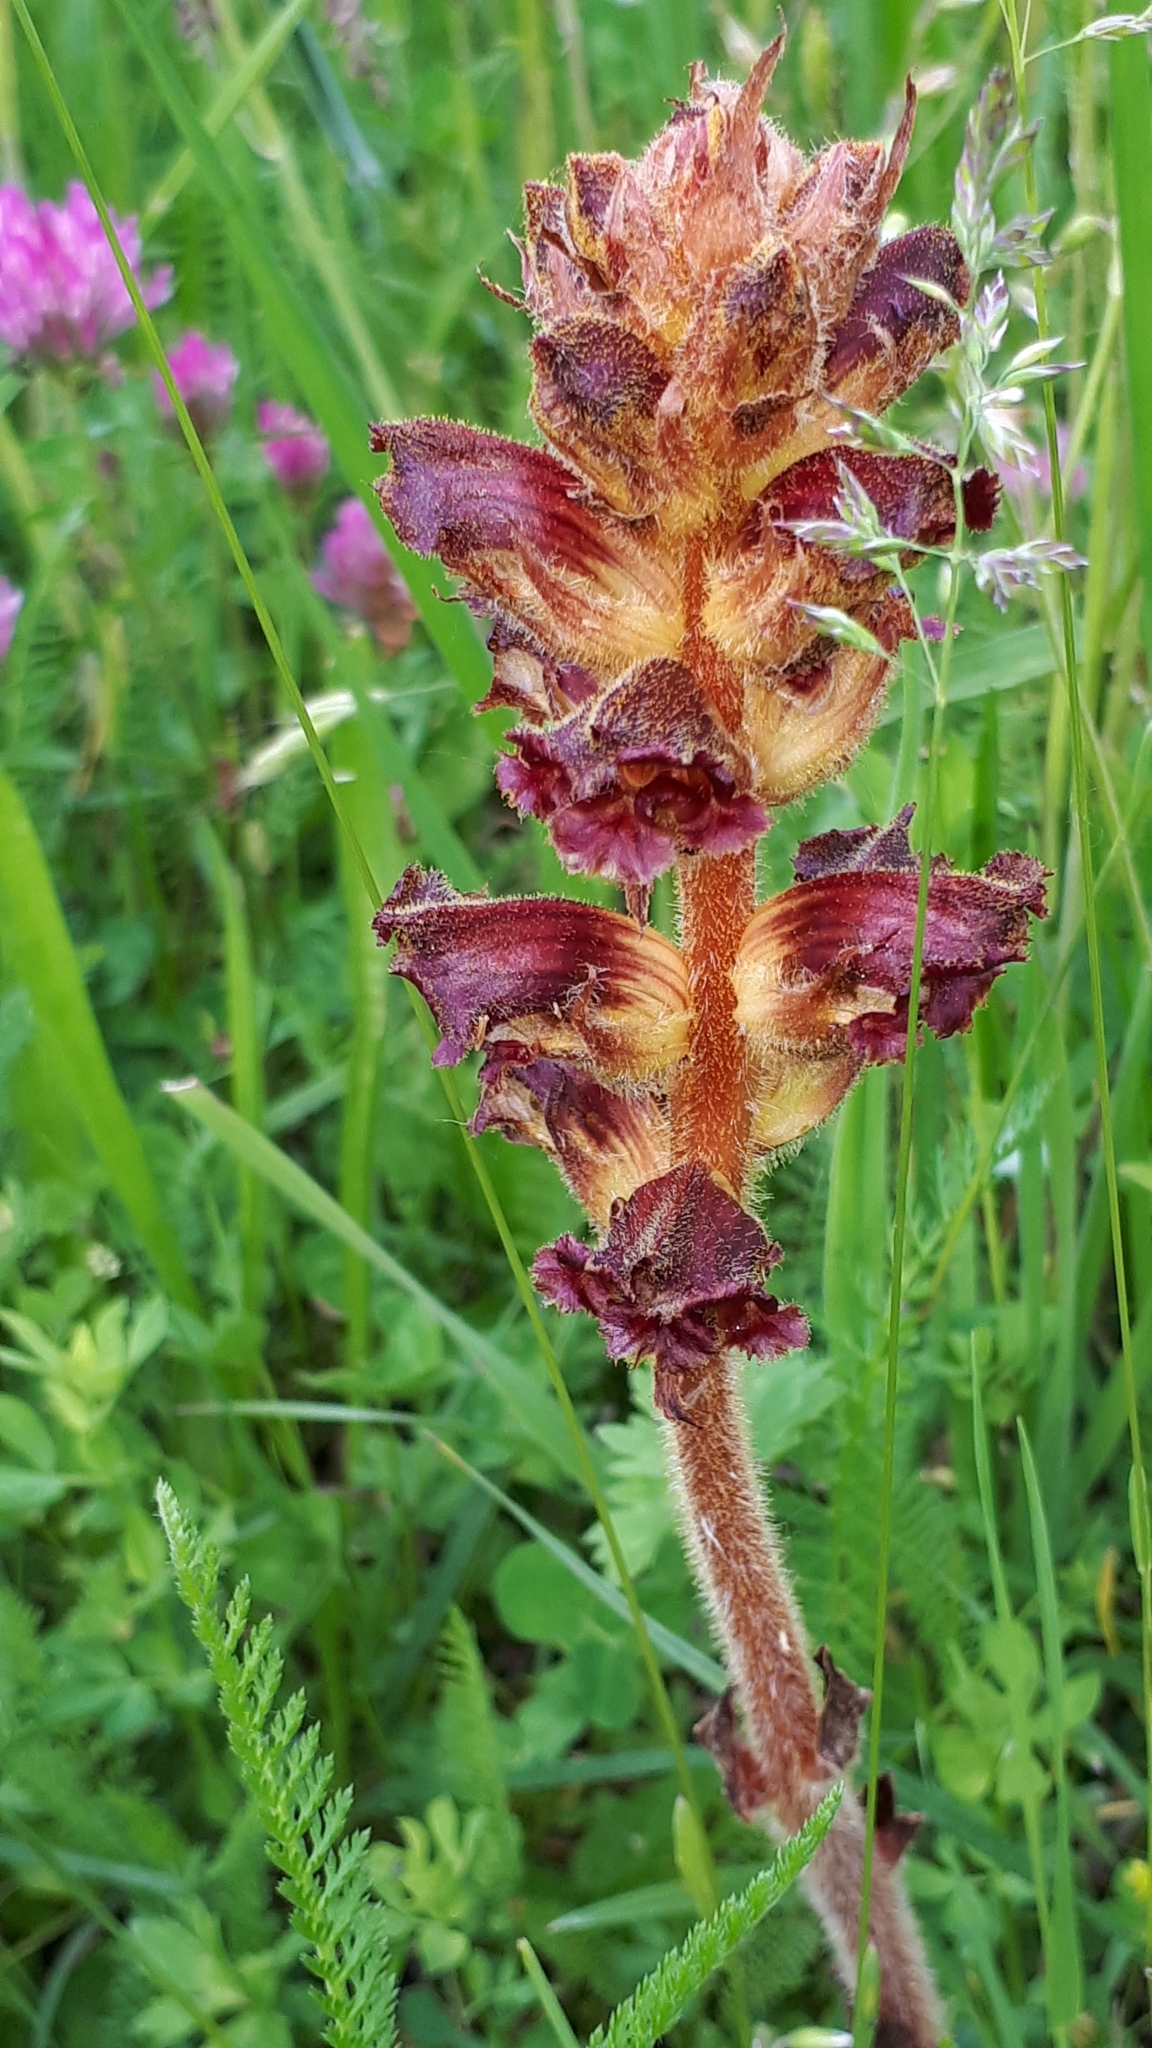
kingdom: Plantae
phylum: Tracheophyta
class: Magnoliopsida
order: Lamiales
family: Orobanchaceae
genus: Orobanche
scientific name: Orobanche gracilis
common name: Slender broomrape
